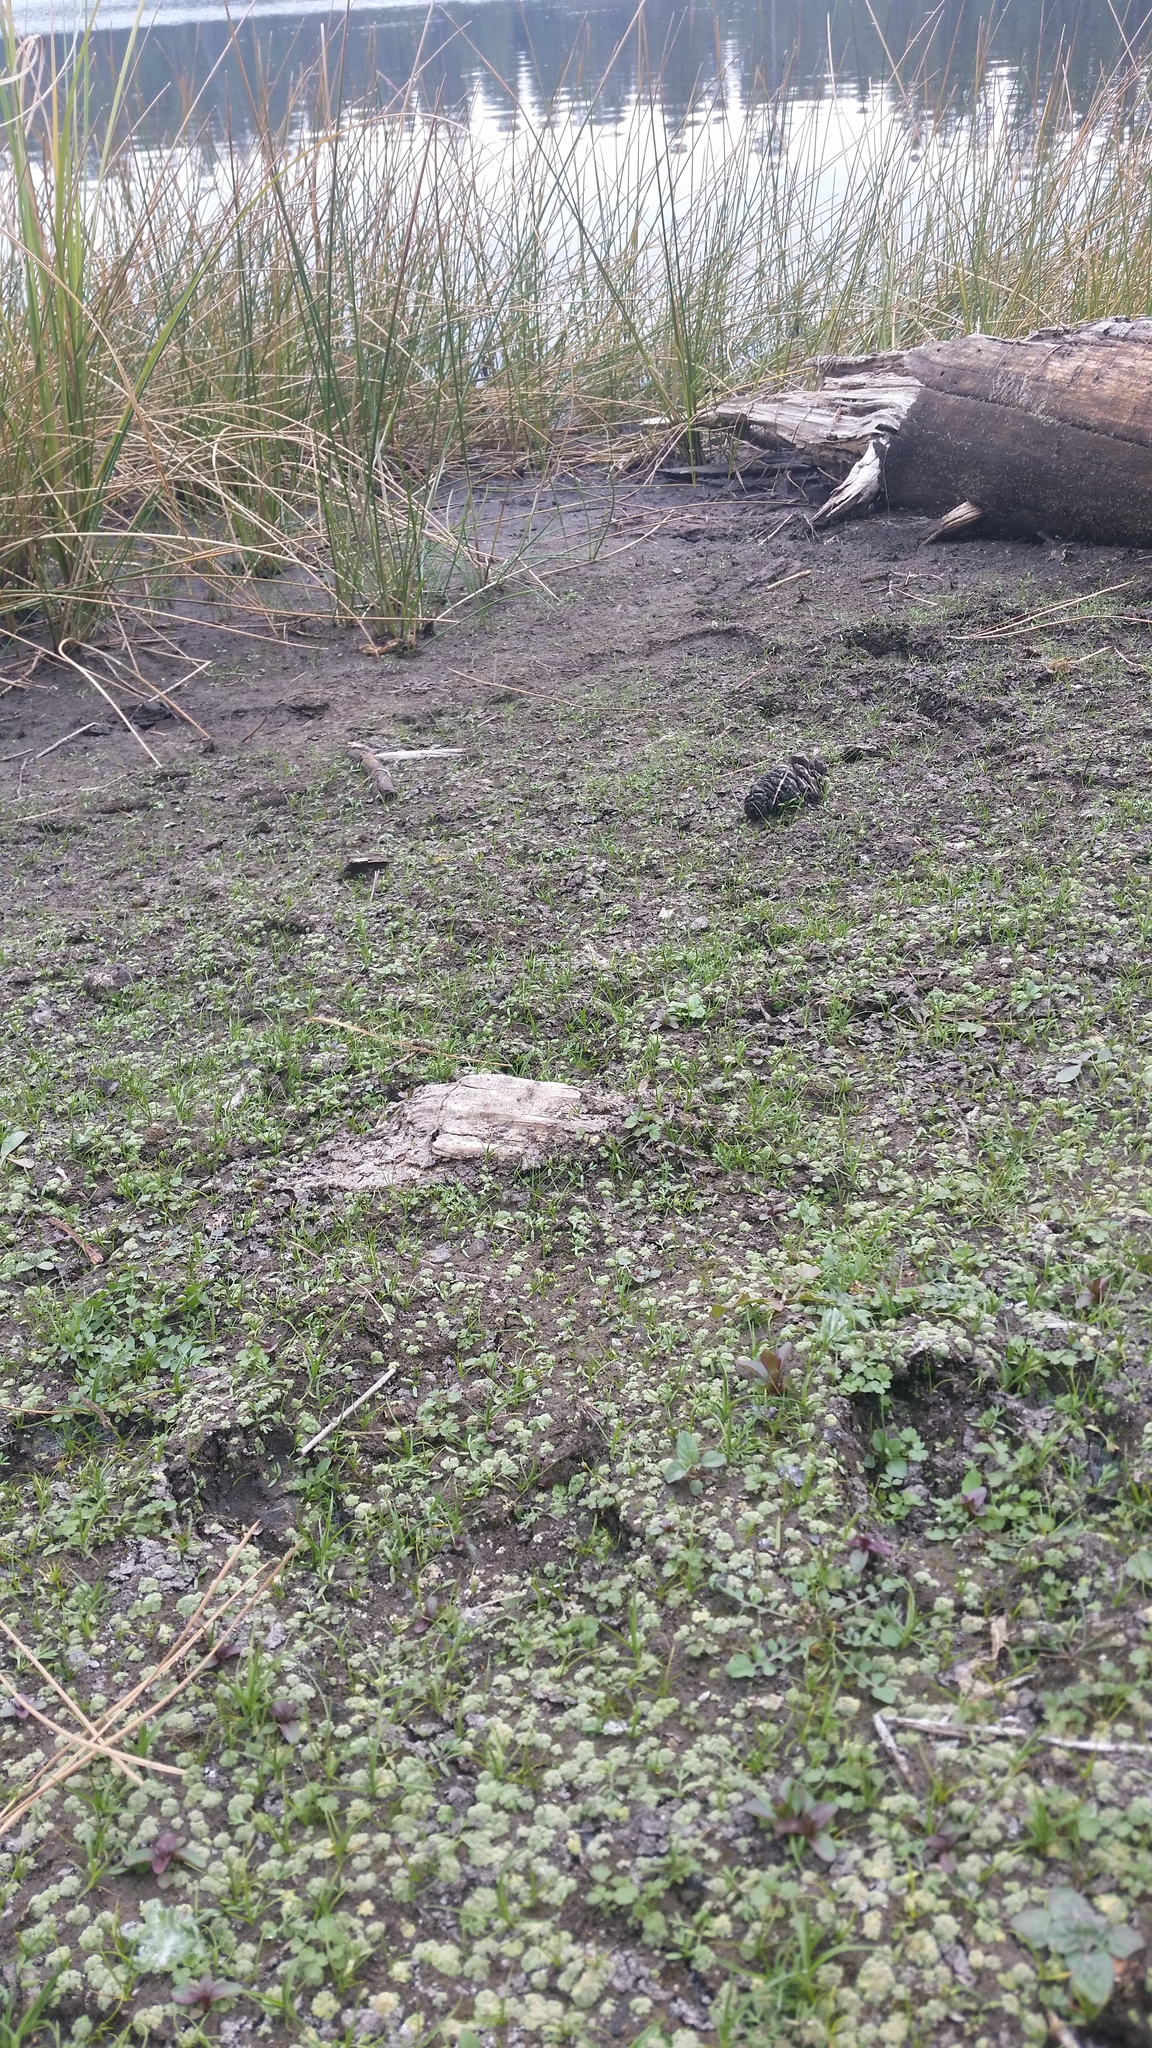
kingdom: Plantae
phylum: Marchantiophyta
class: Marchantiopsida
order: Marchantiales
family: Ricciaceae
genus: Riccia
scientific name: Riccia cavernosa
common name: Cavernous crystalwort
